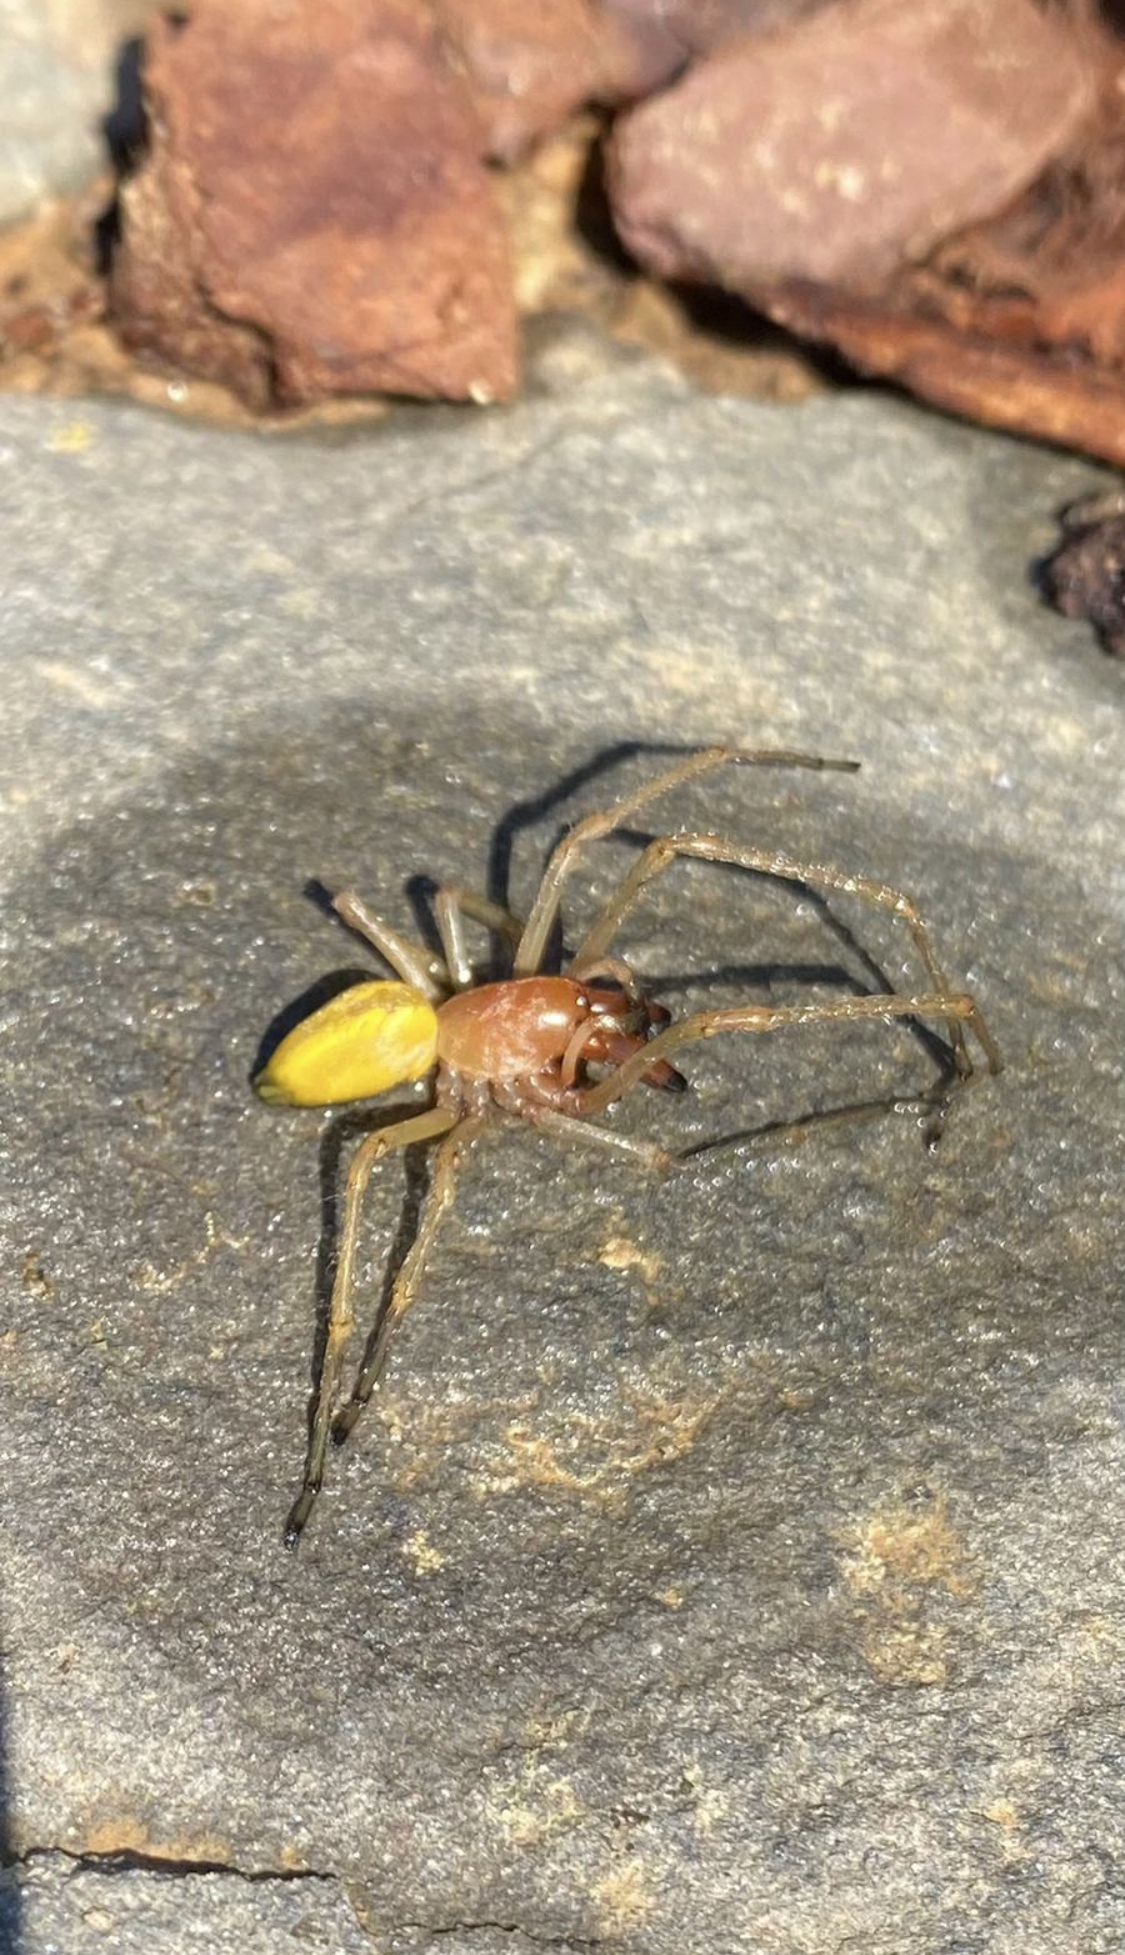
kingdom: Animalia
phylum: Arthropoda
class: Arachnida
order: Araneae
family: Cheiracanthiidae
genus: Cheiracanthium
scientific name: Cheiracanthium punctorium
